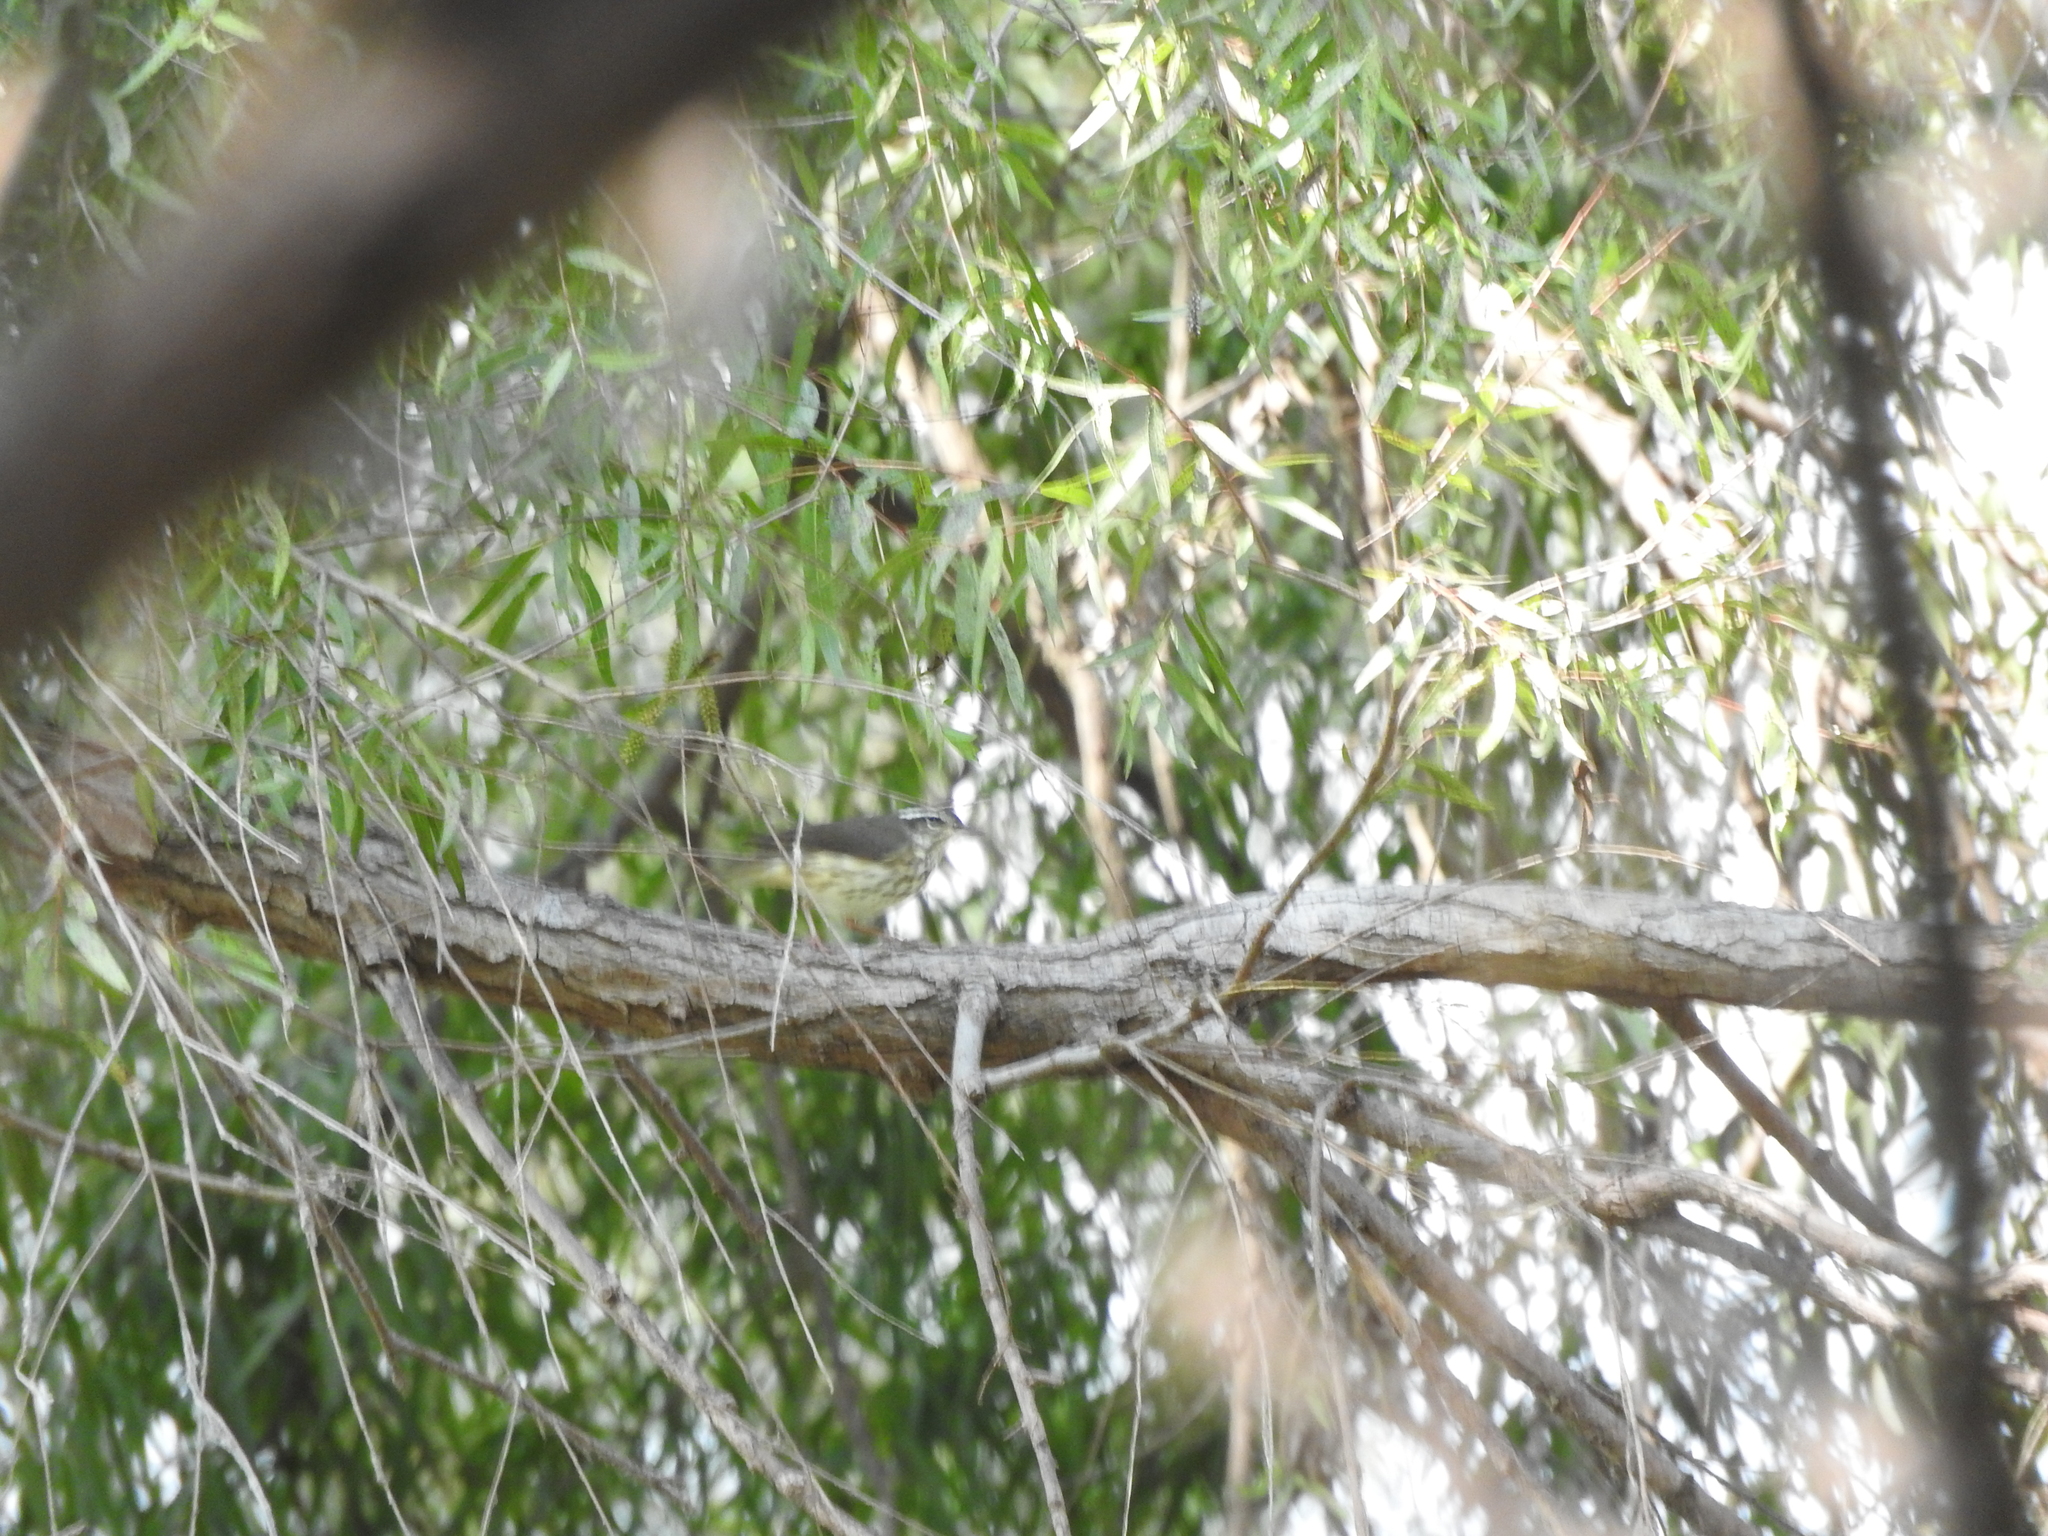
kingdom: Animalia
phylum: Chordata
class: Aves
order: Passeriformes
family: Parulidae
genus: Parkesia
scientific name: Parkesia motacilla
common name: Louisiana waterthrush
